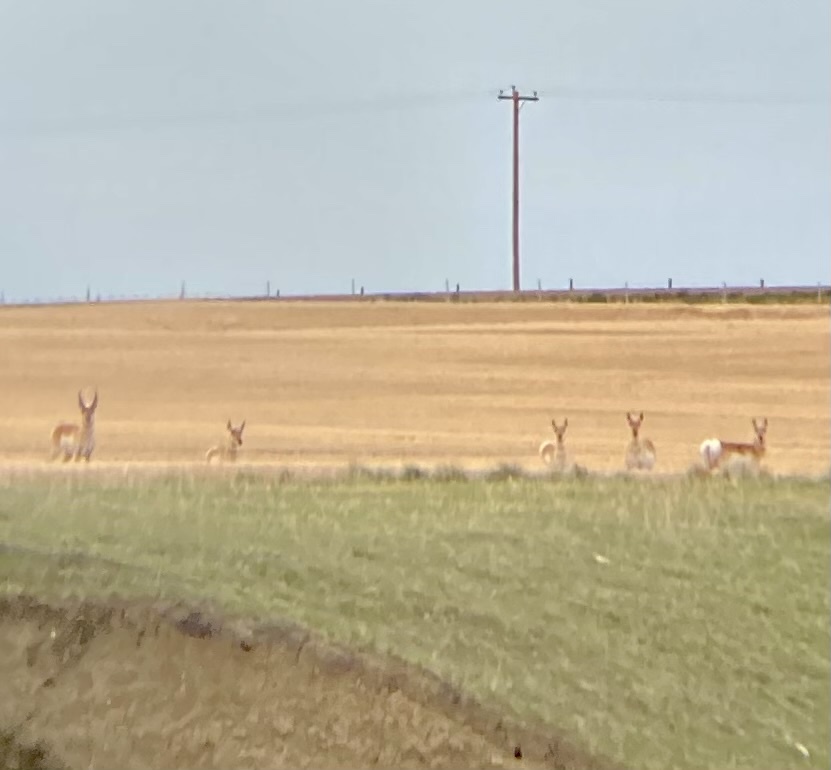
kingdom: Animalia
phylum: Chordata
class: Mammalia
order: Artiodactyla
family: Antilocapridae
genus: Antilocapra
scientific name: Antilocapra americana
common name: Pronghorn
